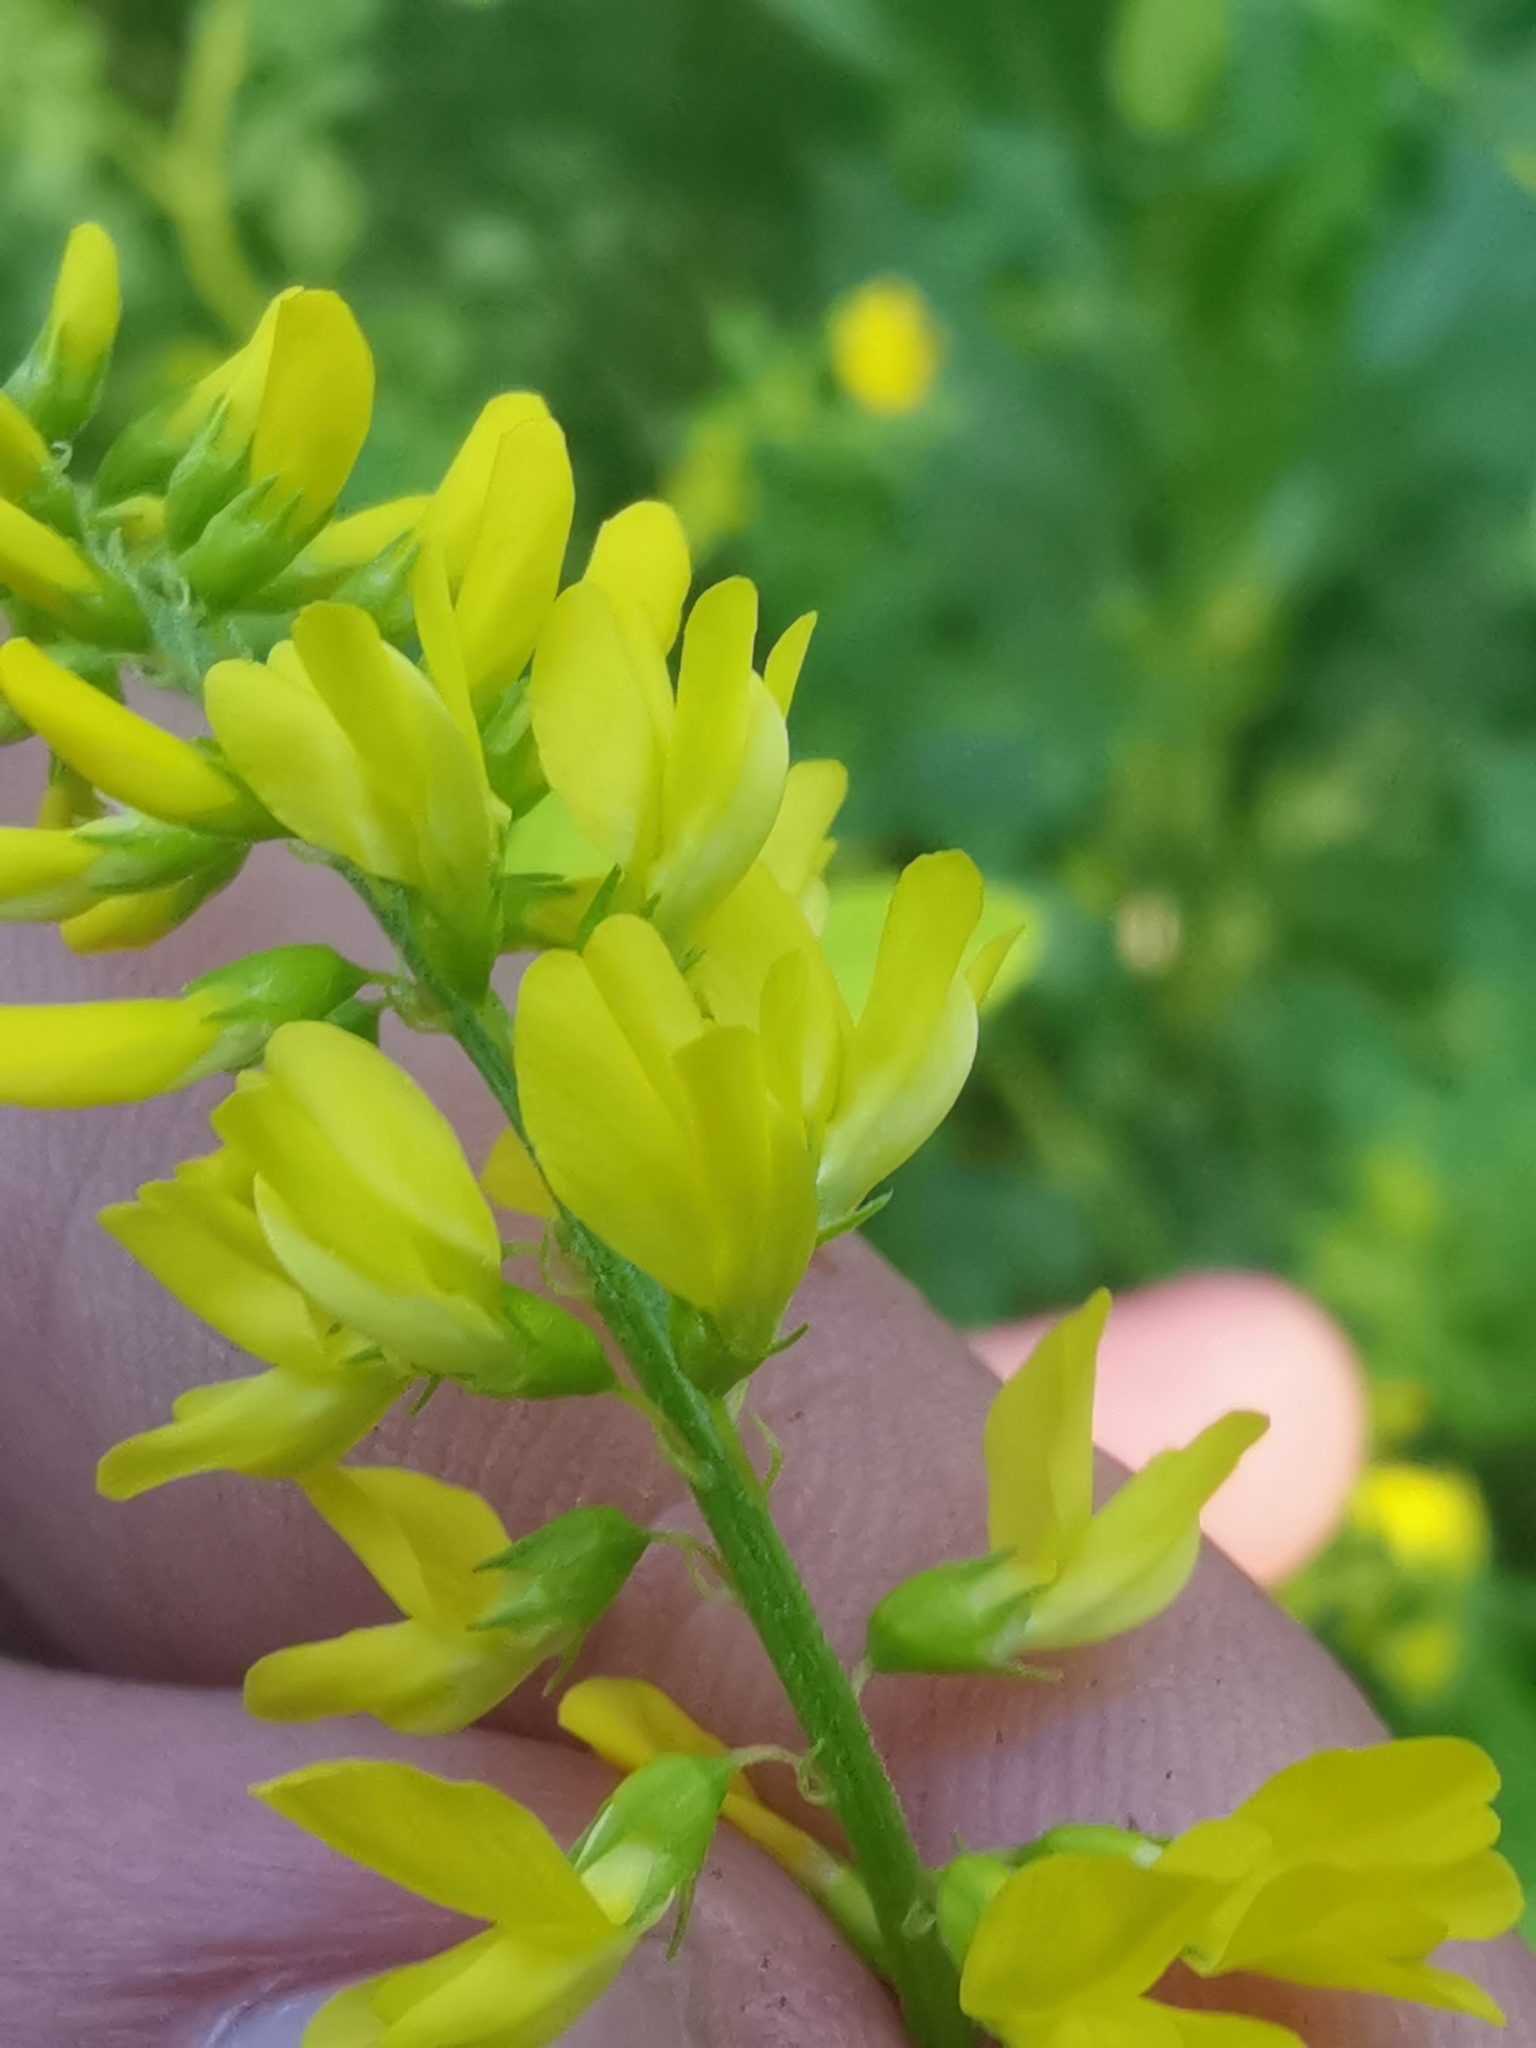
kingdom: Plantae
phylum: Tracheophyta
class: Magnoliopsida
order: Fabales
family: Fabaceae
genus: Melilotus
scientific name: Melilotus officinalis
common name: Sweetclover
